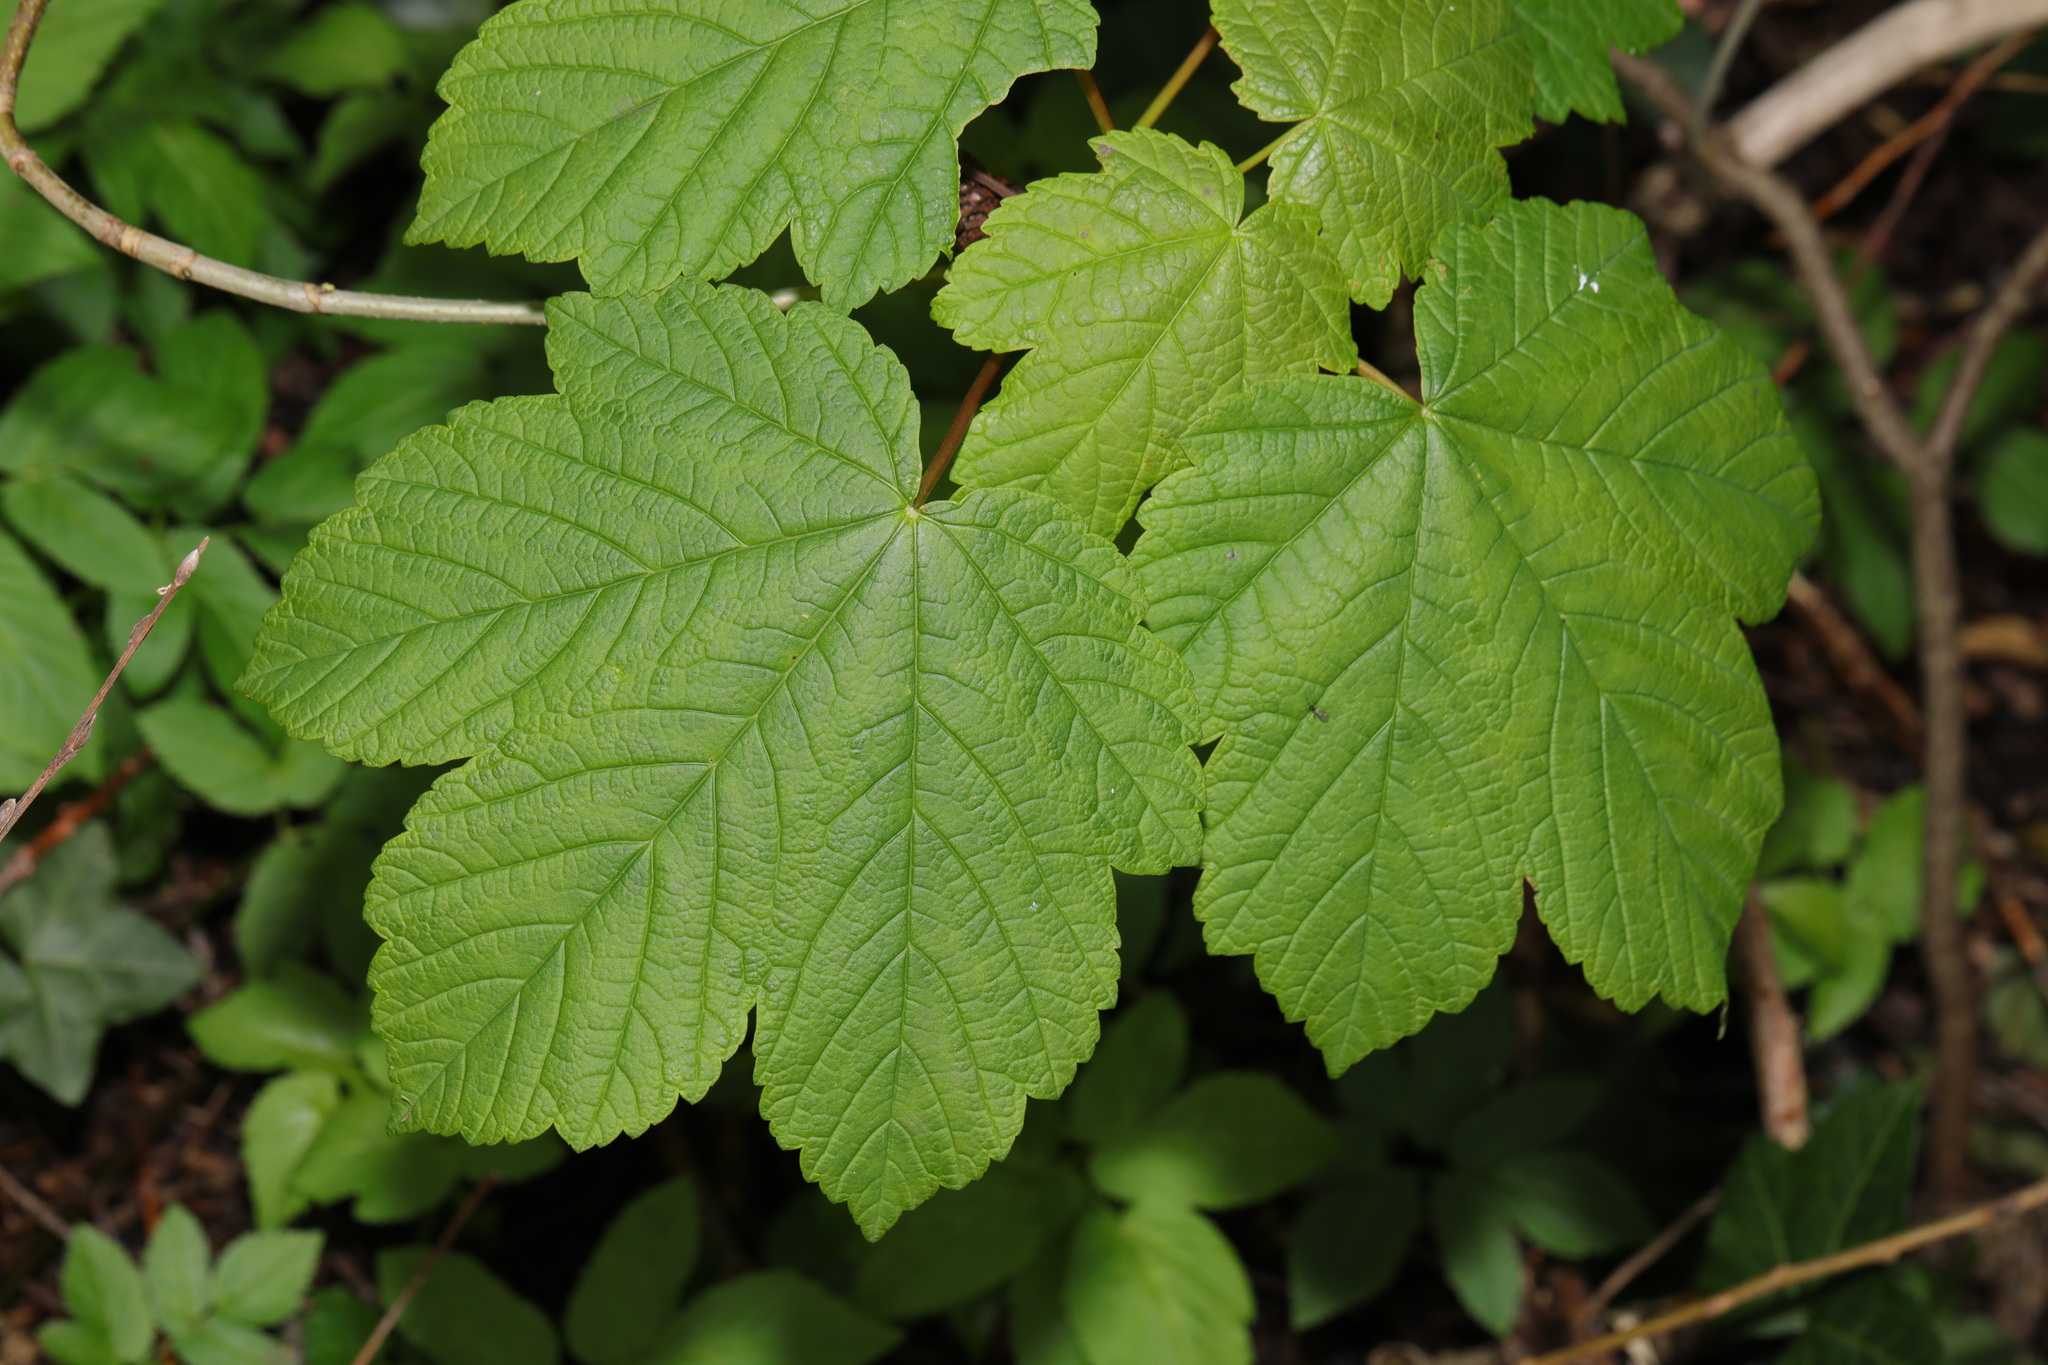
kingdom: Plantae
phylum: Tracheophyta
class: Magnoliopsida
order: Sapindales
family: Sapindaceae
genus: Acer
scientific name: Acer pseudoplatanus
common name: Sycamore
